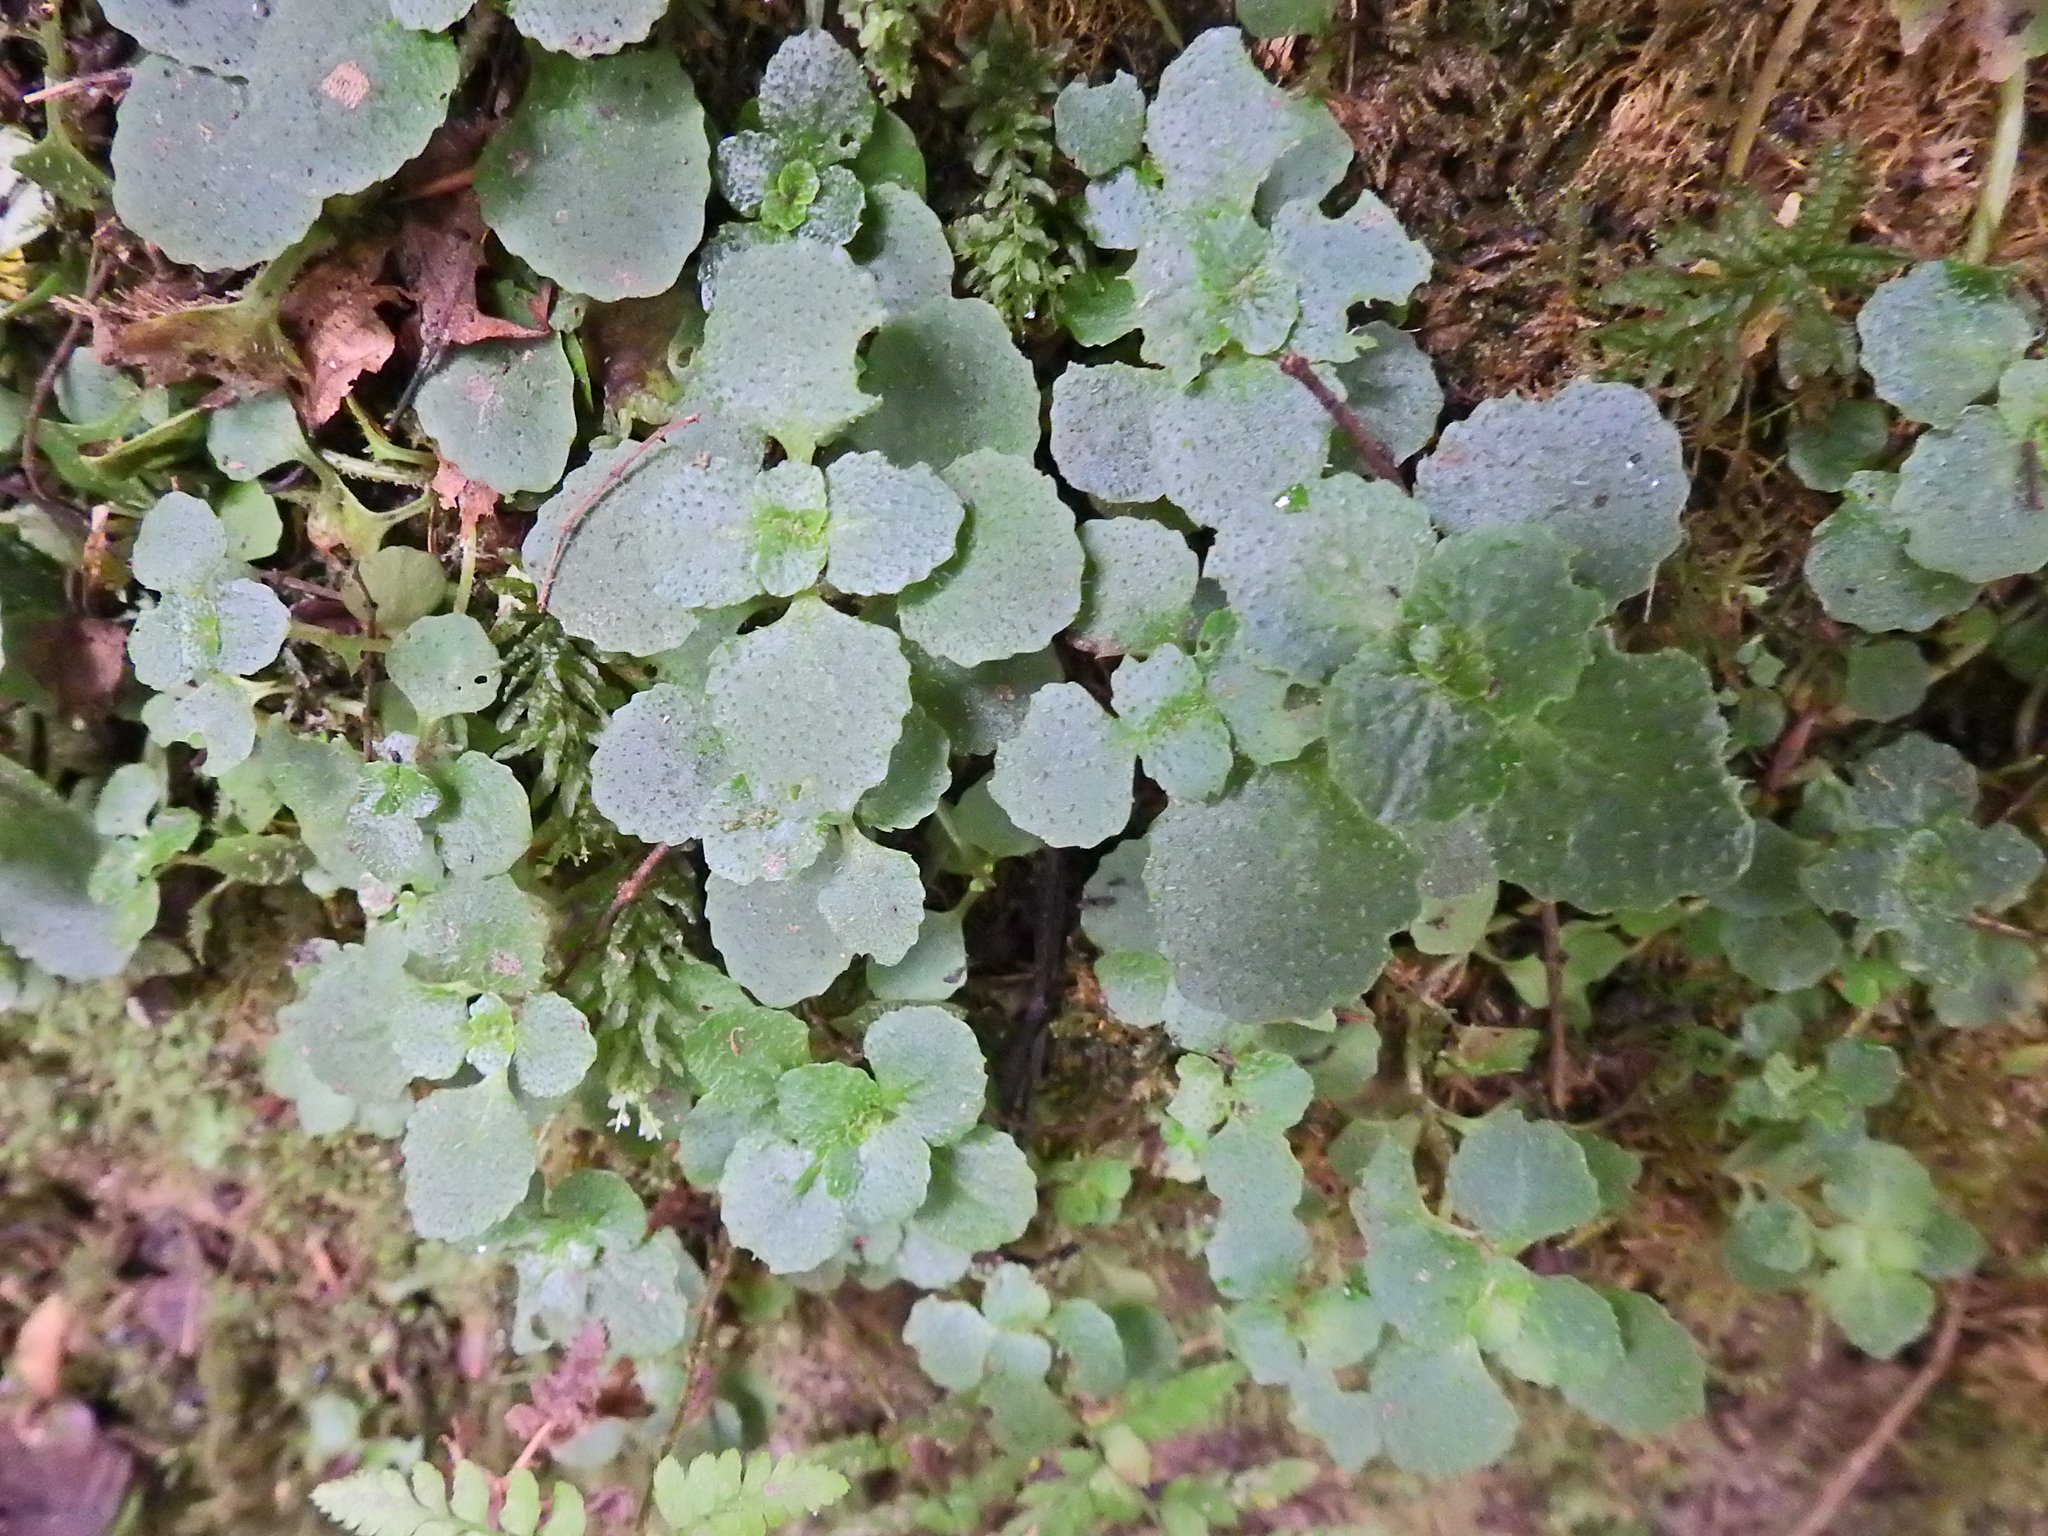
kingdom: Plantae
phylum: Tracheophyta
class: Magnoliopsida
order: Saxifragales
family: Saxifragaceae
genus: Chrysosplenium
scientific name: Chrysosplenium oppositifolium
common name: Opposite-leaved golden-saxifrage
